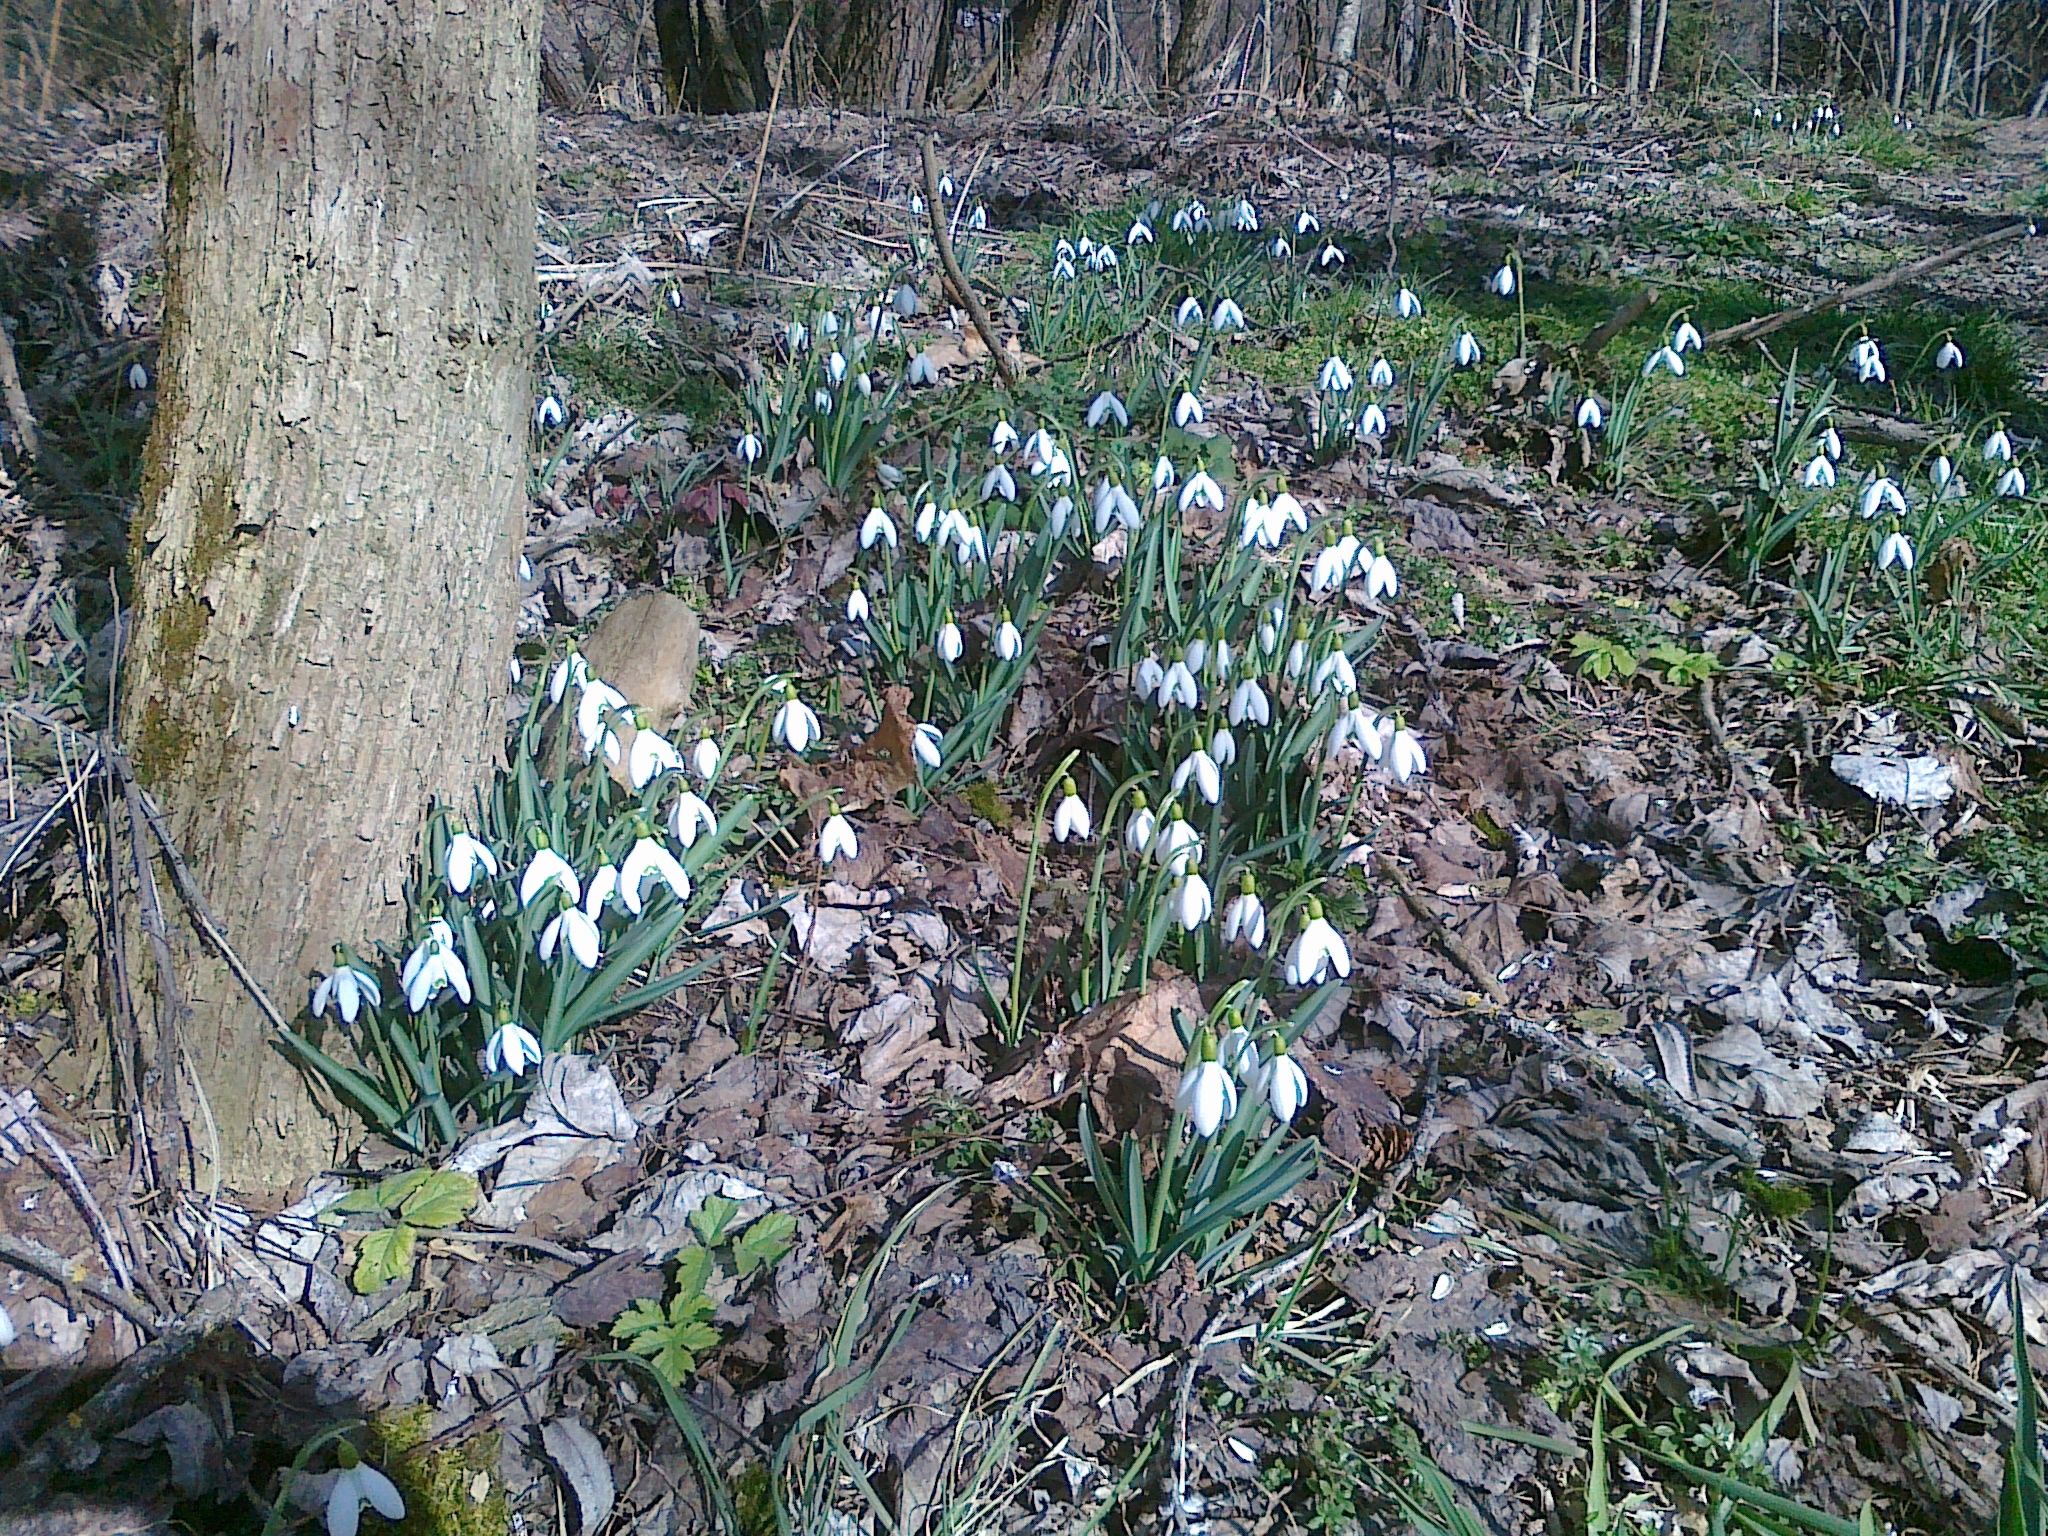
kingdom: Plantae
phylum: Tracheophyta
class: Liliopsida
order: Asparagales
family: Amaryllidaceae
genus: Galanthus
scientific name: Galanthus nivalis
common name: Snowdrop
